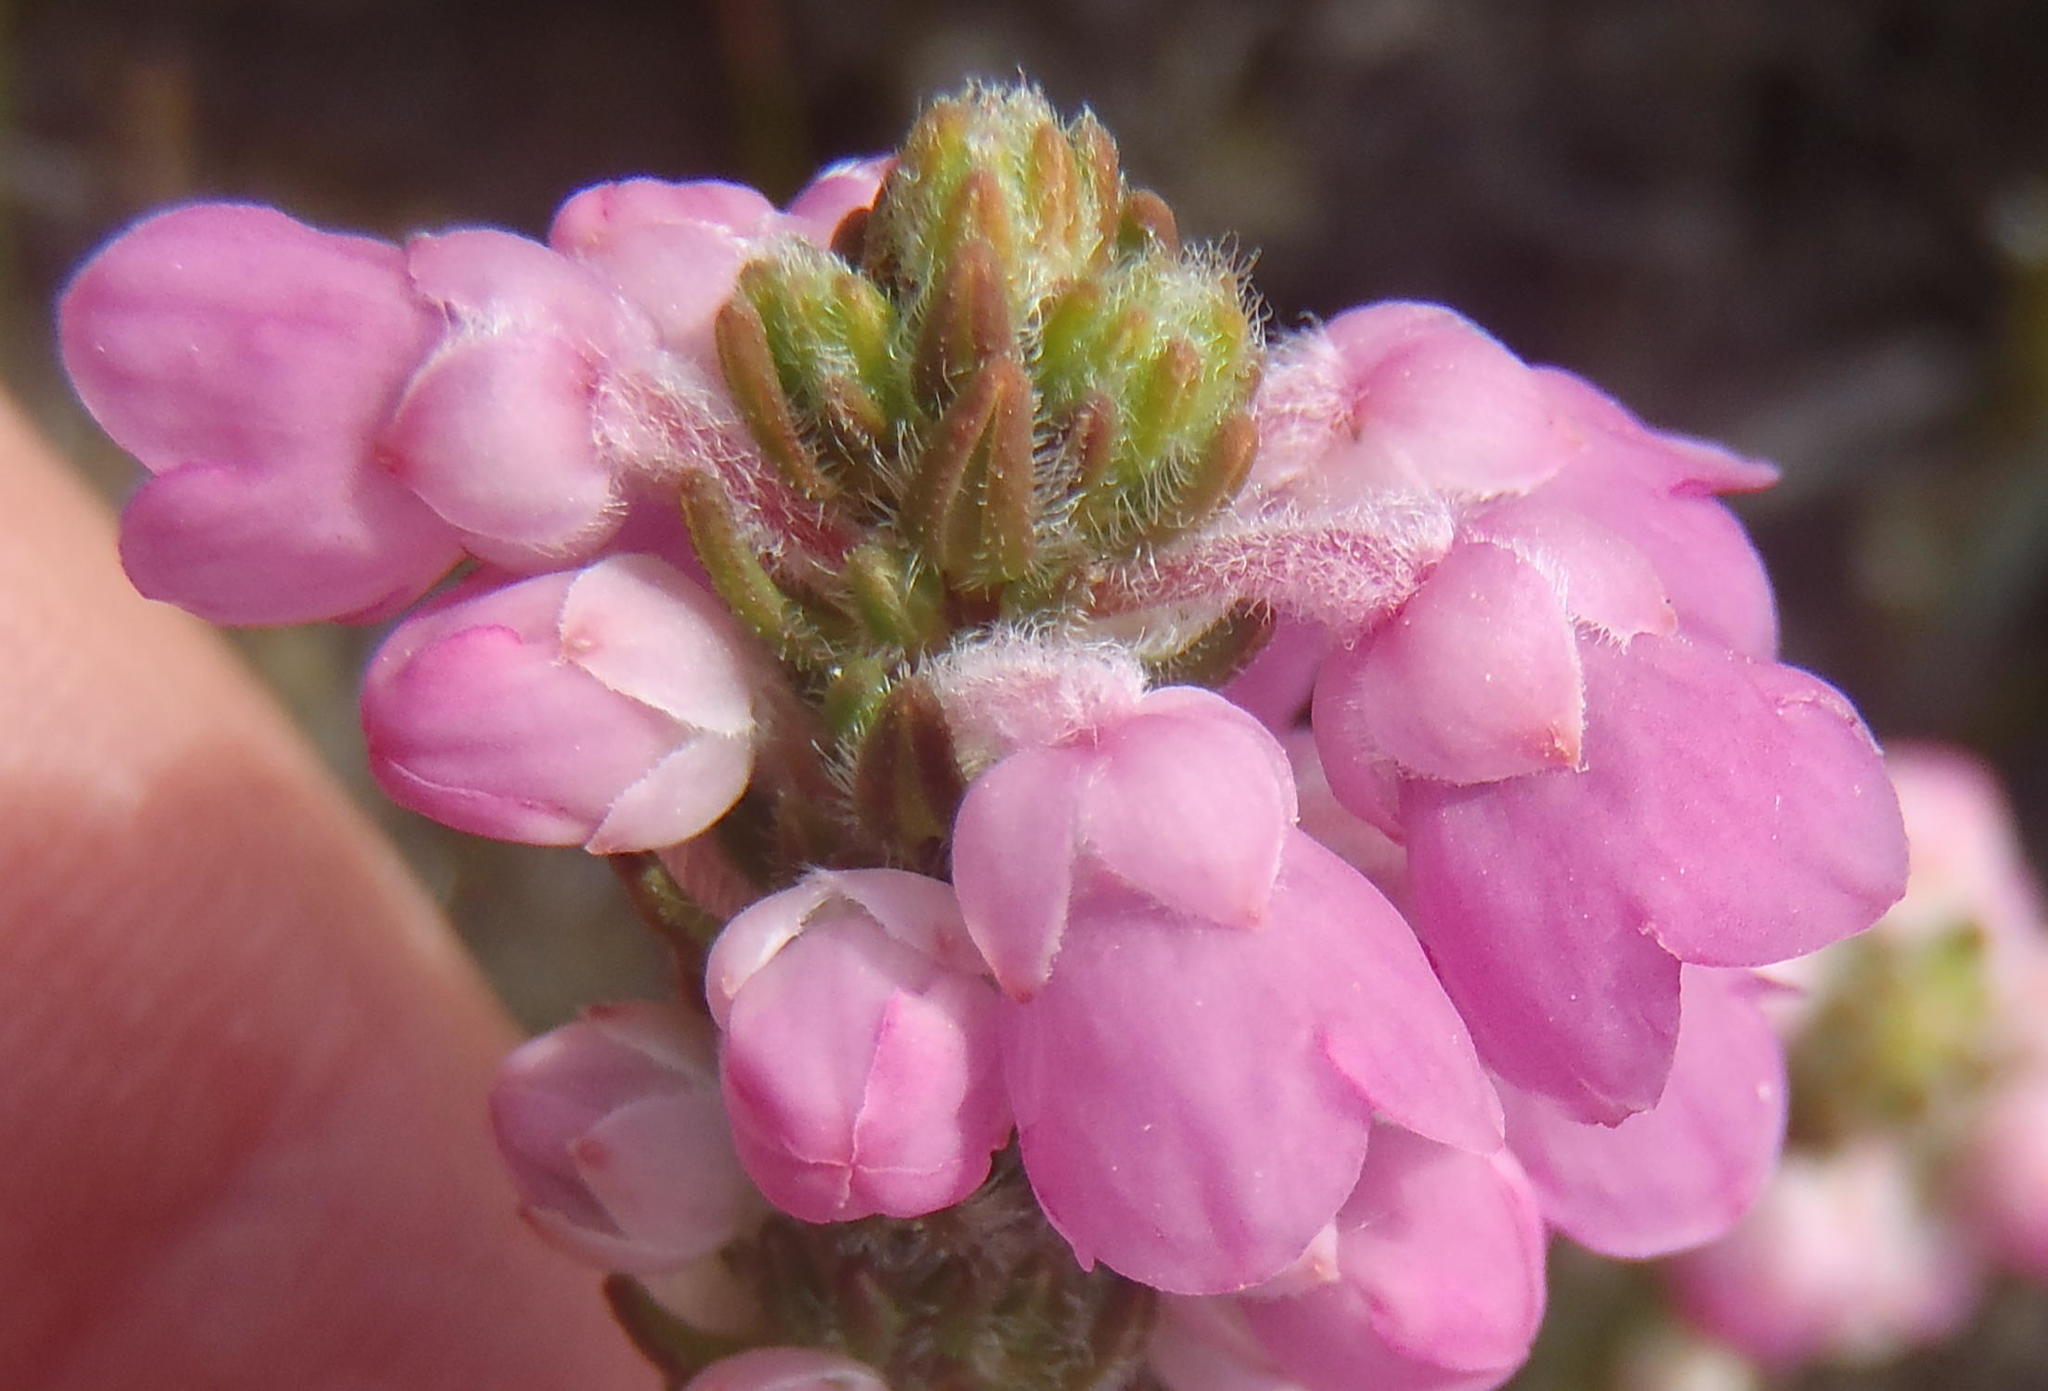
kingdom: Plantae
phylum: Tracheophyta
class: Magnoliopsida
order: Ericales
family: Ericaceae
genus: Erica
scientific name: Erica nervata
